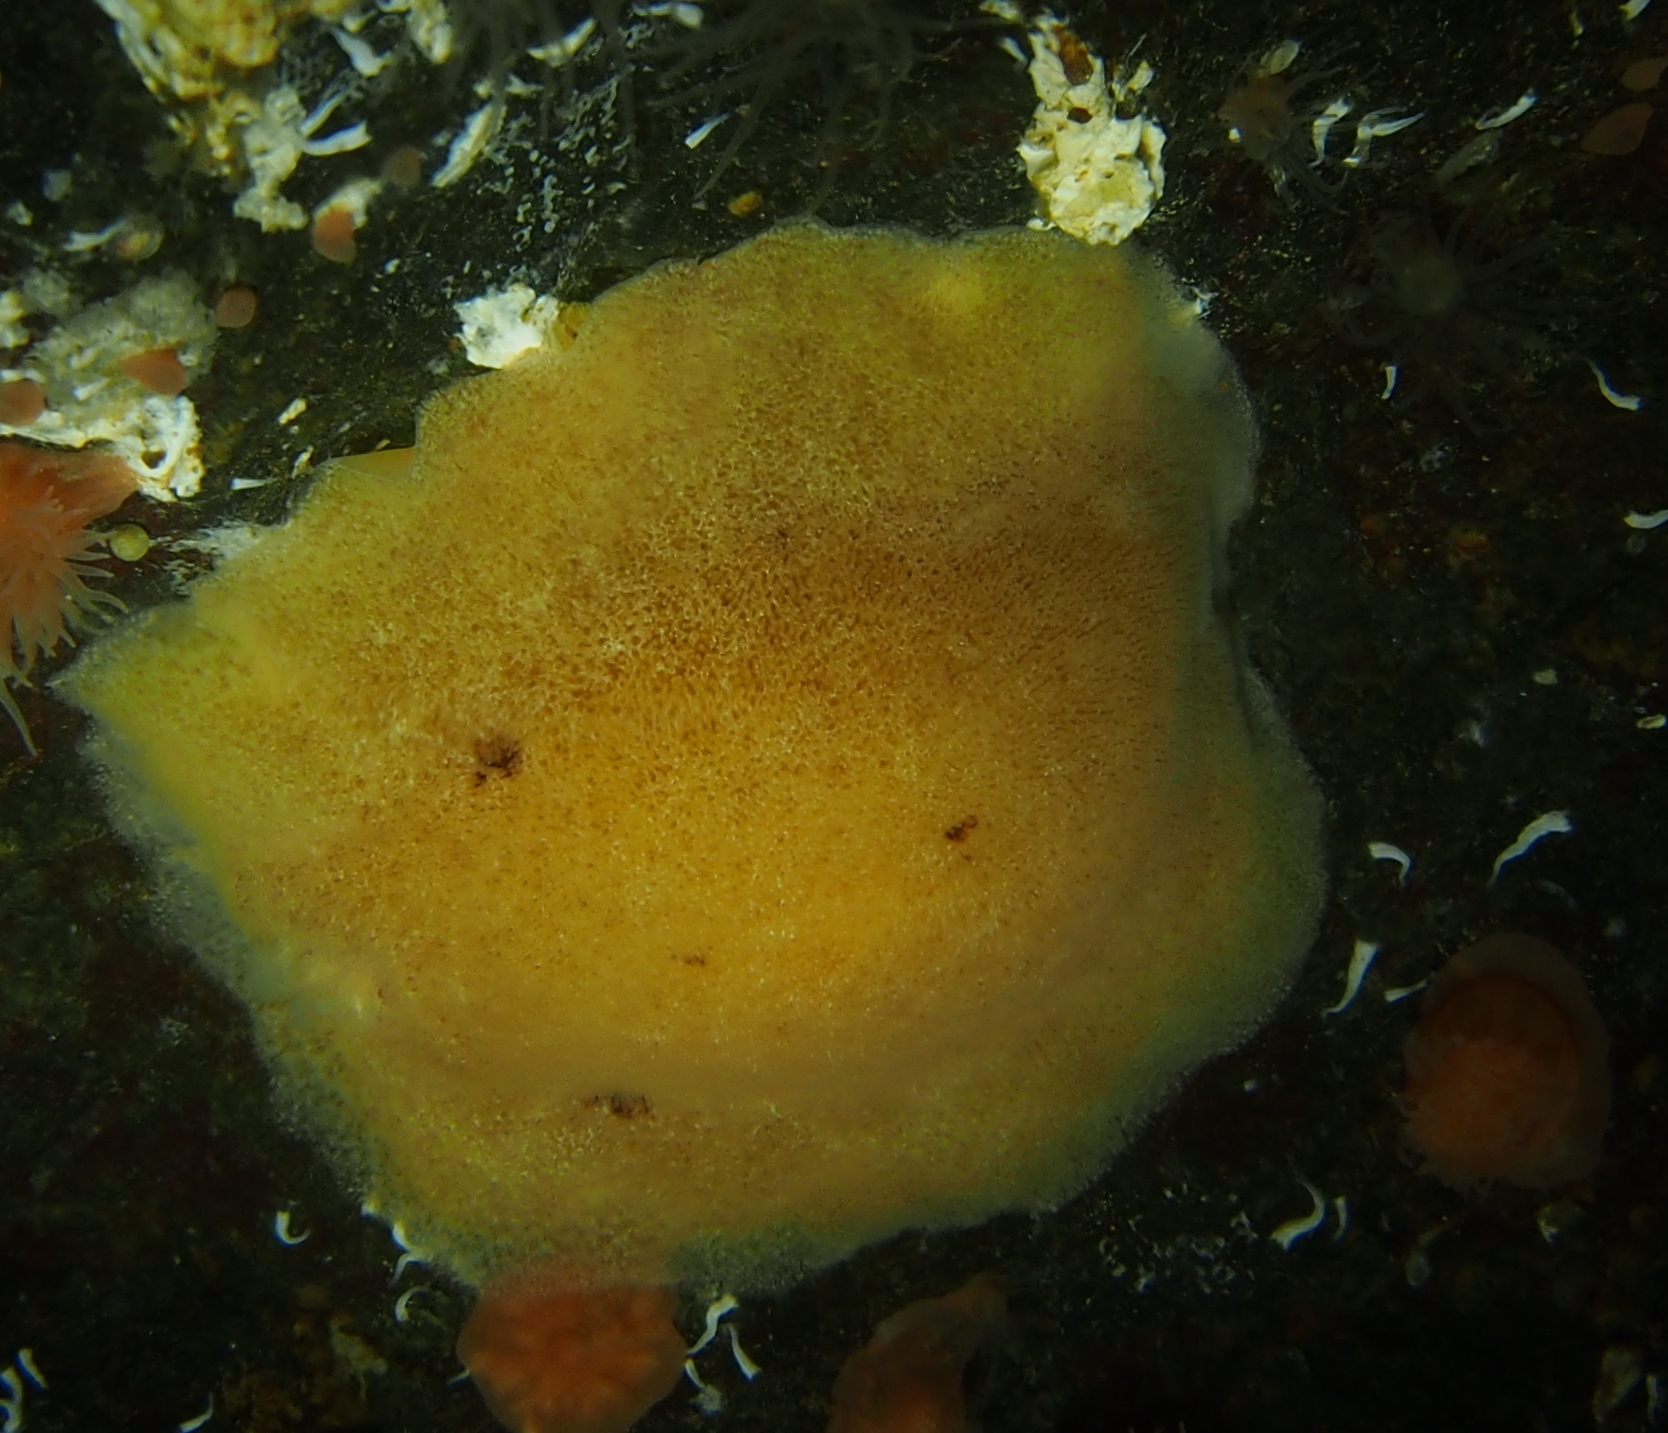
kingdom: Animalia
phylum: Mollusca
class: Gastropoda
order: Nudibranchia
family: Discodorididae
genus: Jorunna
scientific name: Jorunna tomentosa
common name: Grey sea slug
